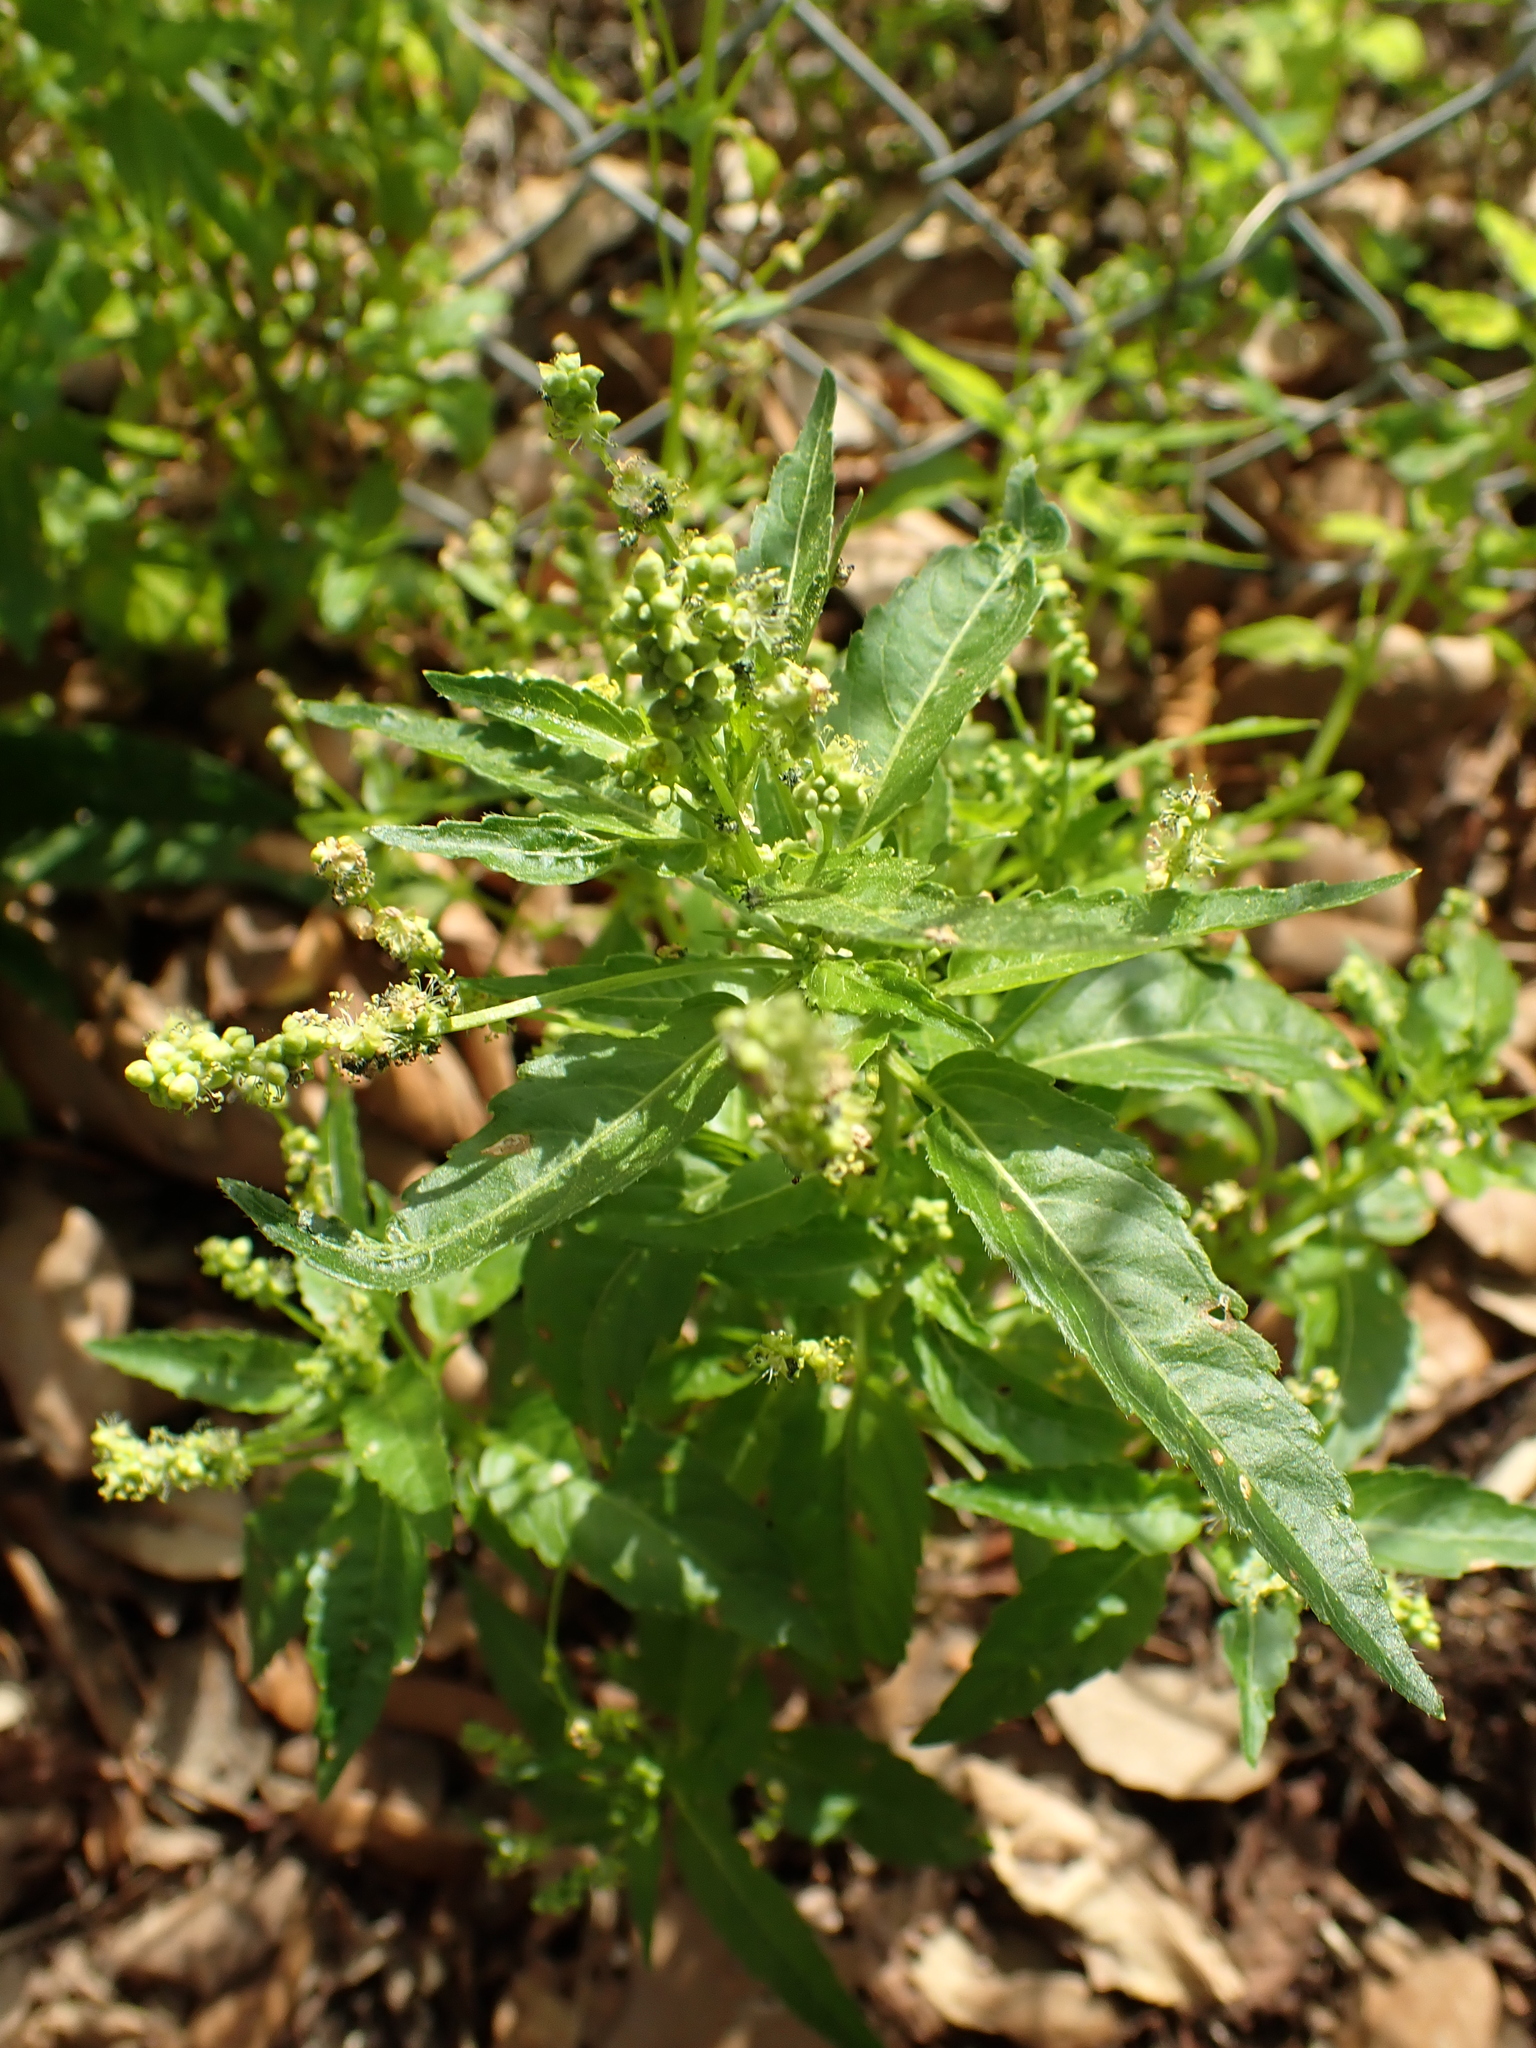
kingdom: Plantae
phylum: Tracheophyta
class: Magnoliopsida
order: Malpighiales
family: Euphorbiaceae
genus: Mercurialis
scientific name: Mercurialis annua
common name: Annual mercury
